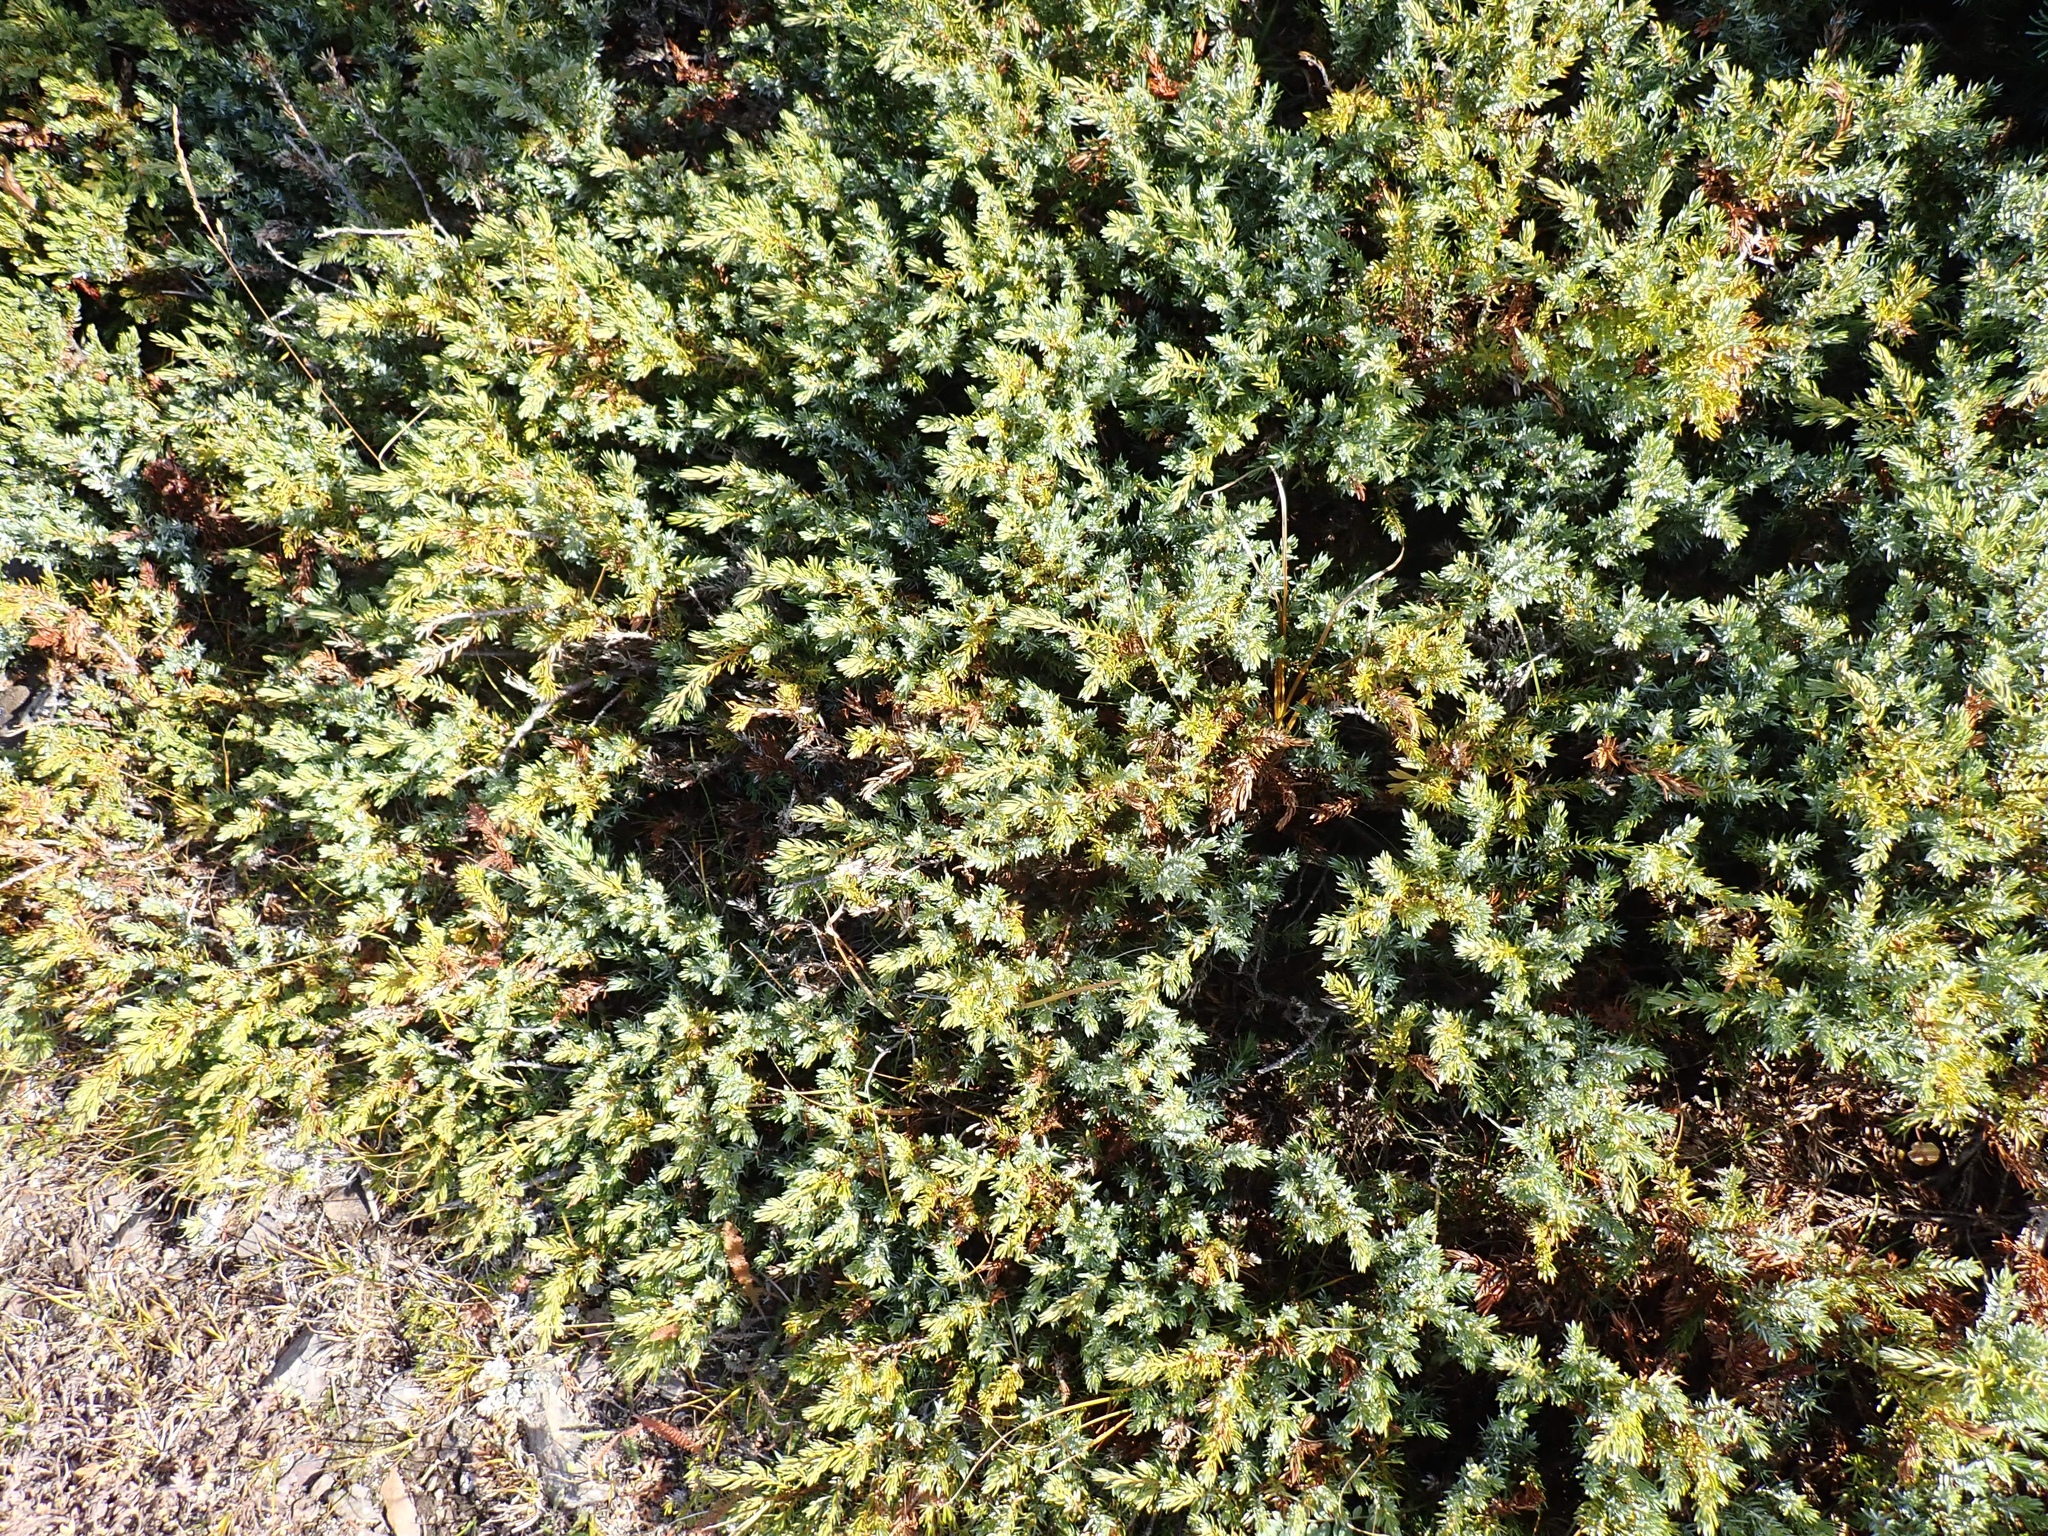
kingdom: Plantae
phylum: Tracheophyta
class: Pinopsida
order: Pinales
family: Cupressaceae
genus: Juniperus
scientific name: Juniperus communis
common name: Common juniper
